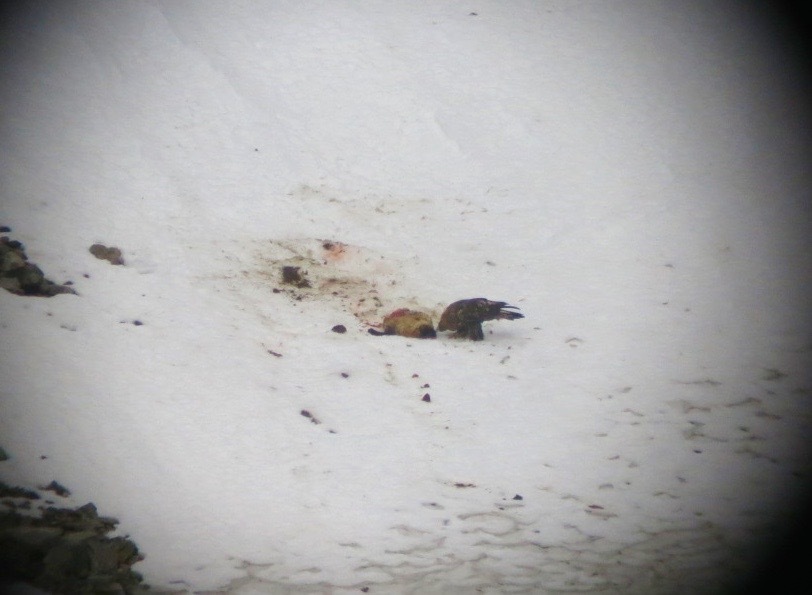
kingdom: Animalia
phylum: Chordata
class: Aves
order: Accipitriformes
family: Accipitridae
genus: Aquila
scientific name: Aquila chrysaetos
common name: Golden eagle
